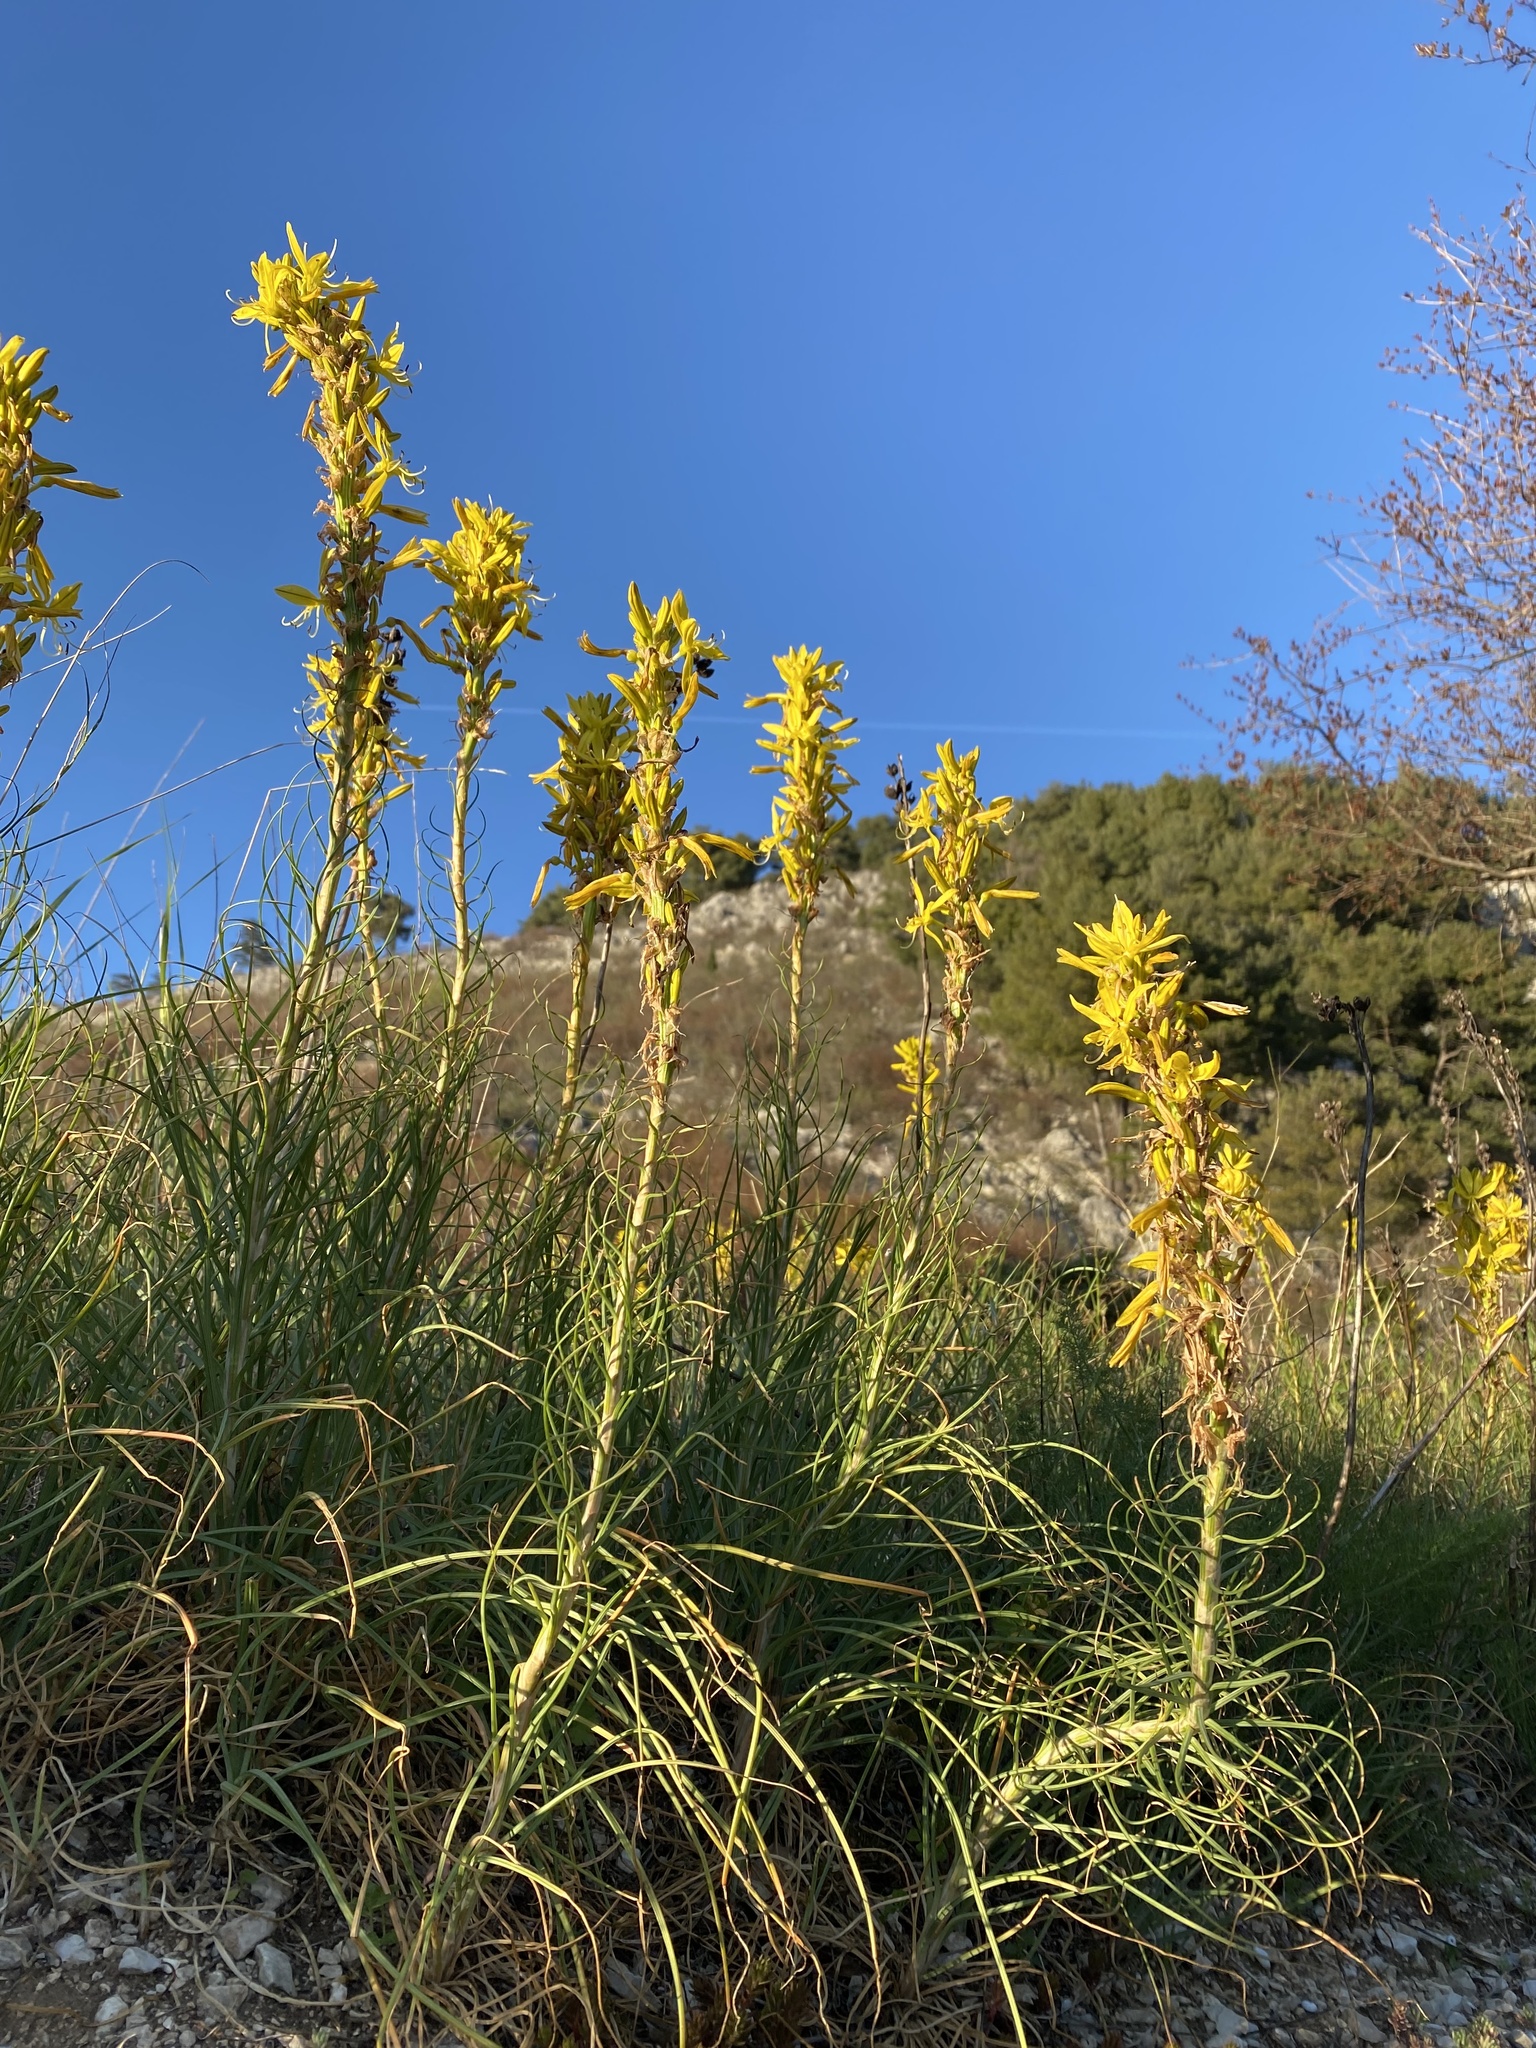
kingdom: Plantae
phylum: Tracheophyta
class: Liliopsida
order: Asparagales
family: Asphodelaceae
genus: Asphodeline
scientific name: Asphodeline lutea
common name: Yellow asphodel
